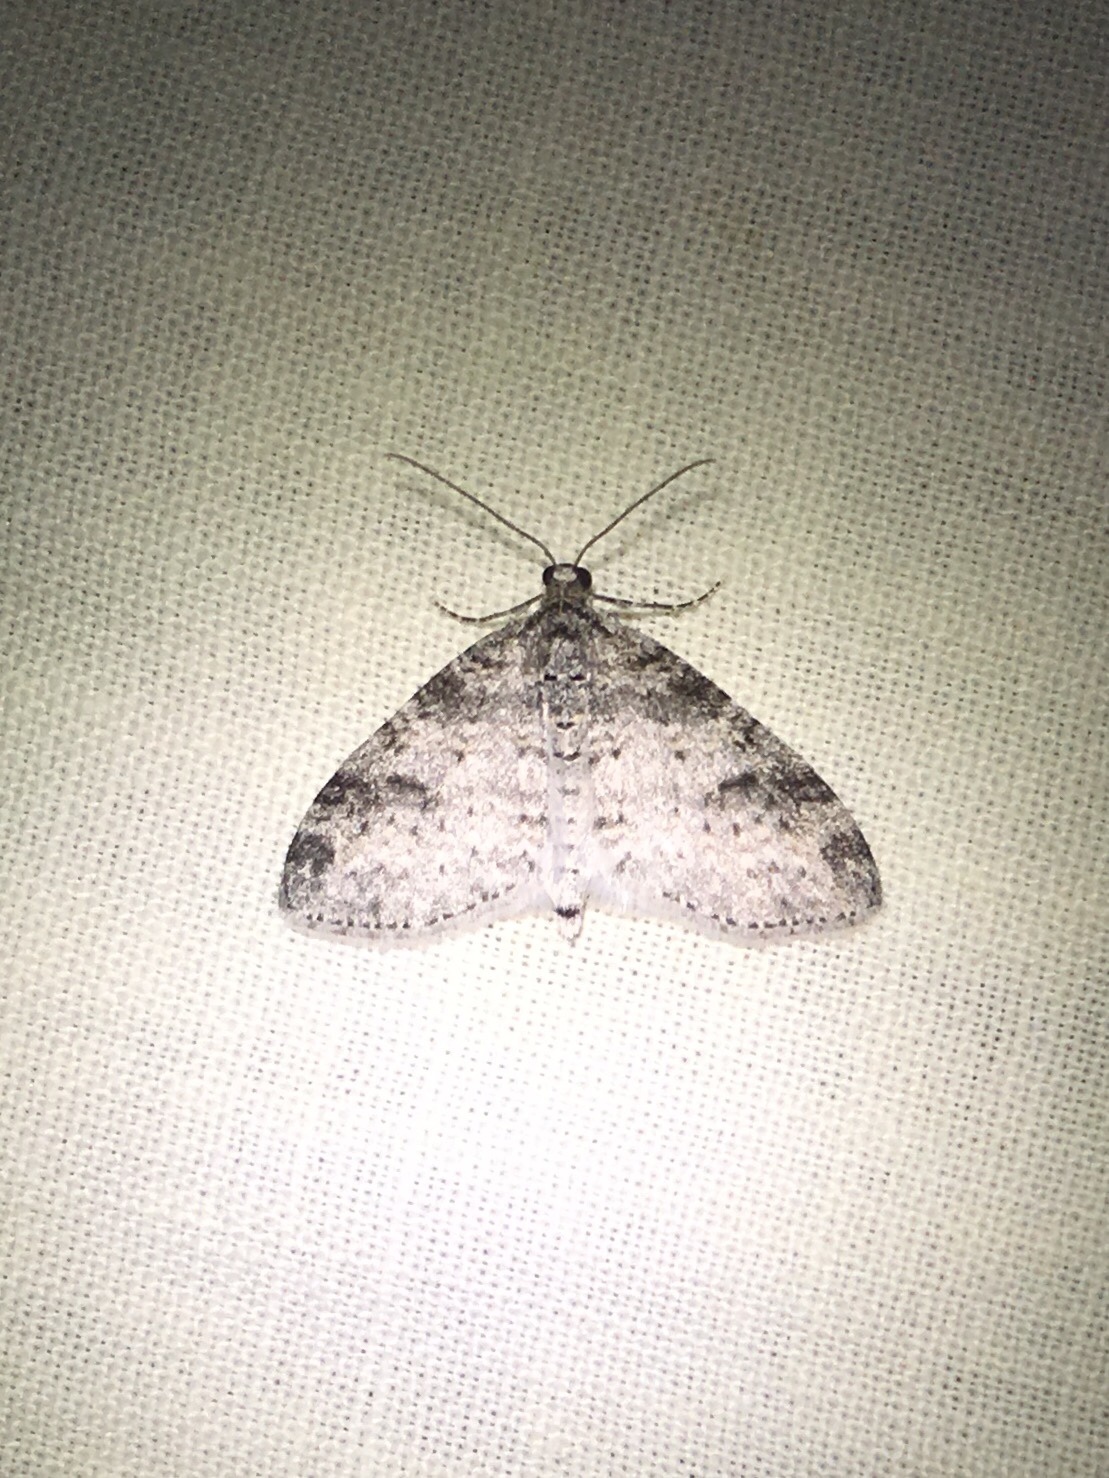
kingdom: Animalia
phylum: Arthropoda
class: Insecta
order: Lepidoptera
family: Geometridae
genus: Lobophora
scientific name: Lobophora nivigerata
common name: Powdered bigwing
